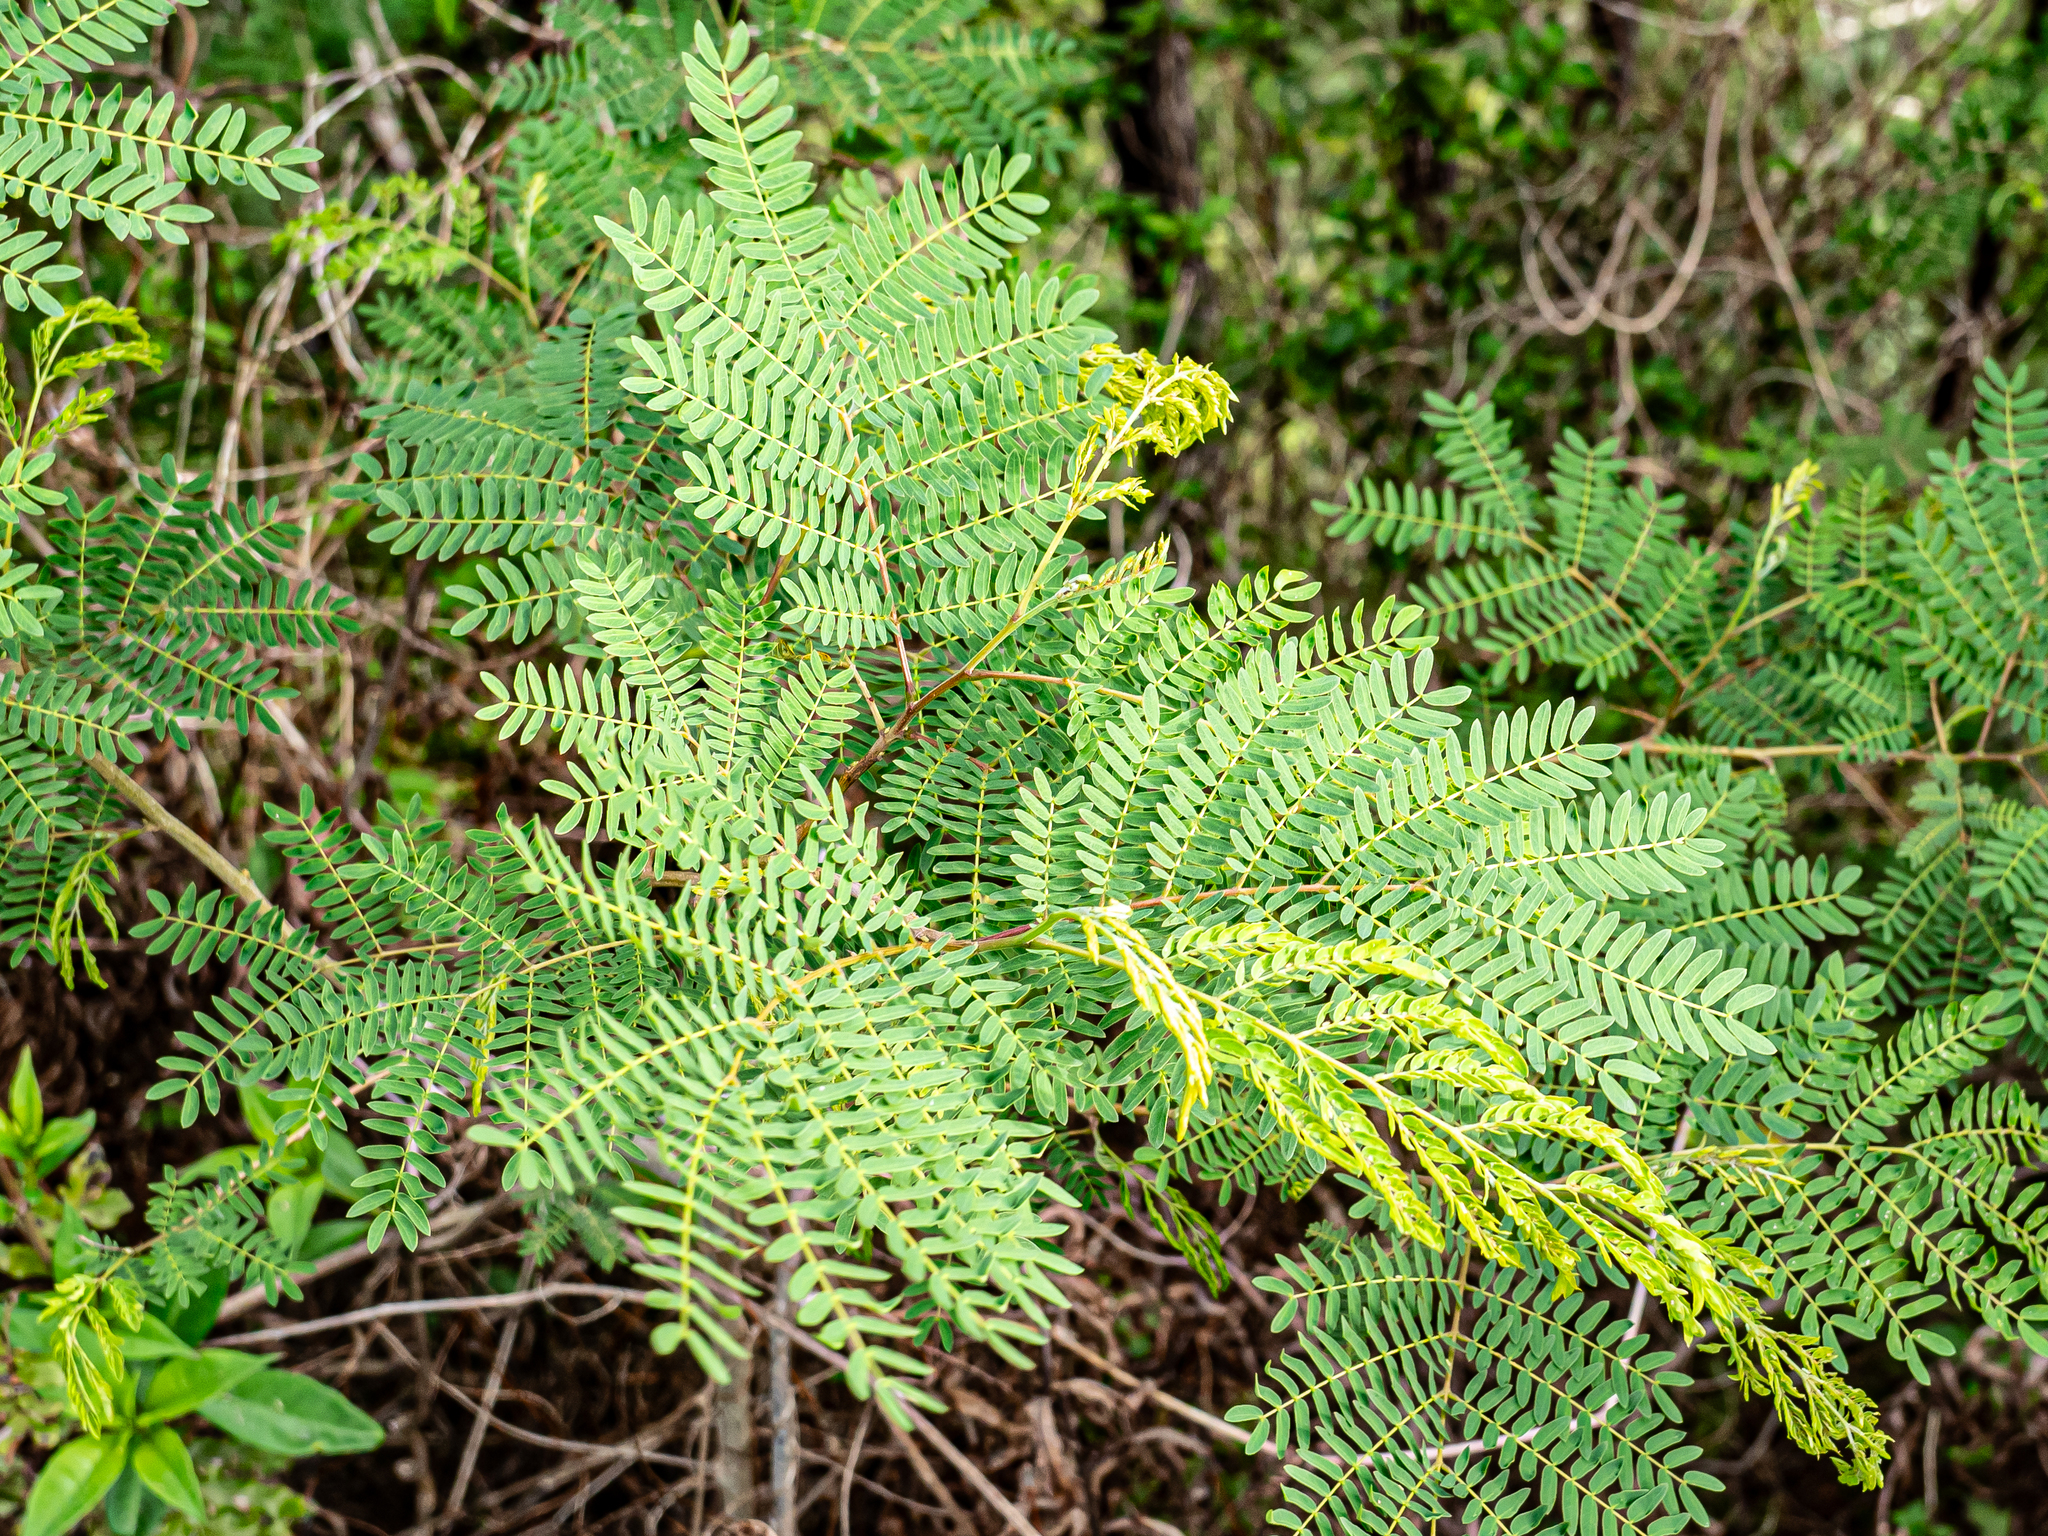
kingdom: Plantae
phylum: Tracheophyta
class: Magnoliopsida
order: Fabales
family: Fabaceae
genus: Leucaena
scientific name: Leucaena leucocephala
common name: White leadtree
